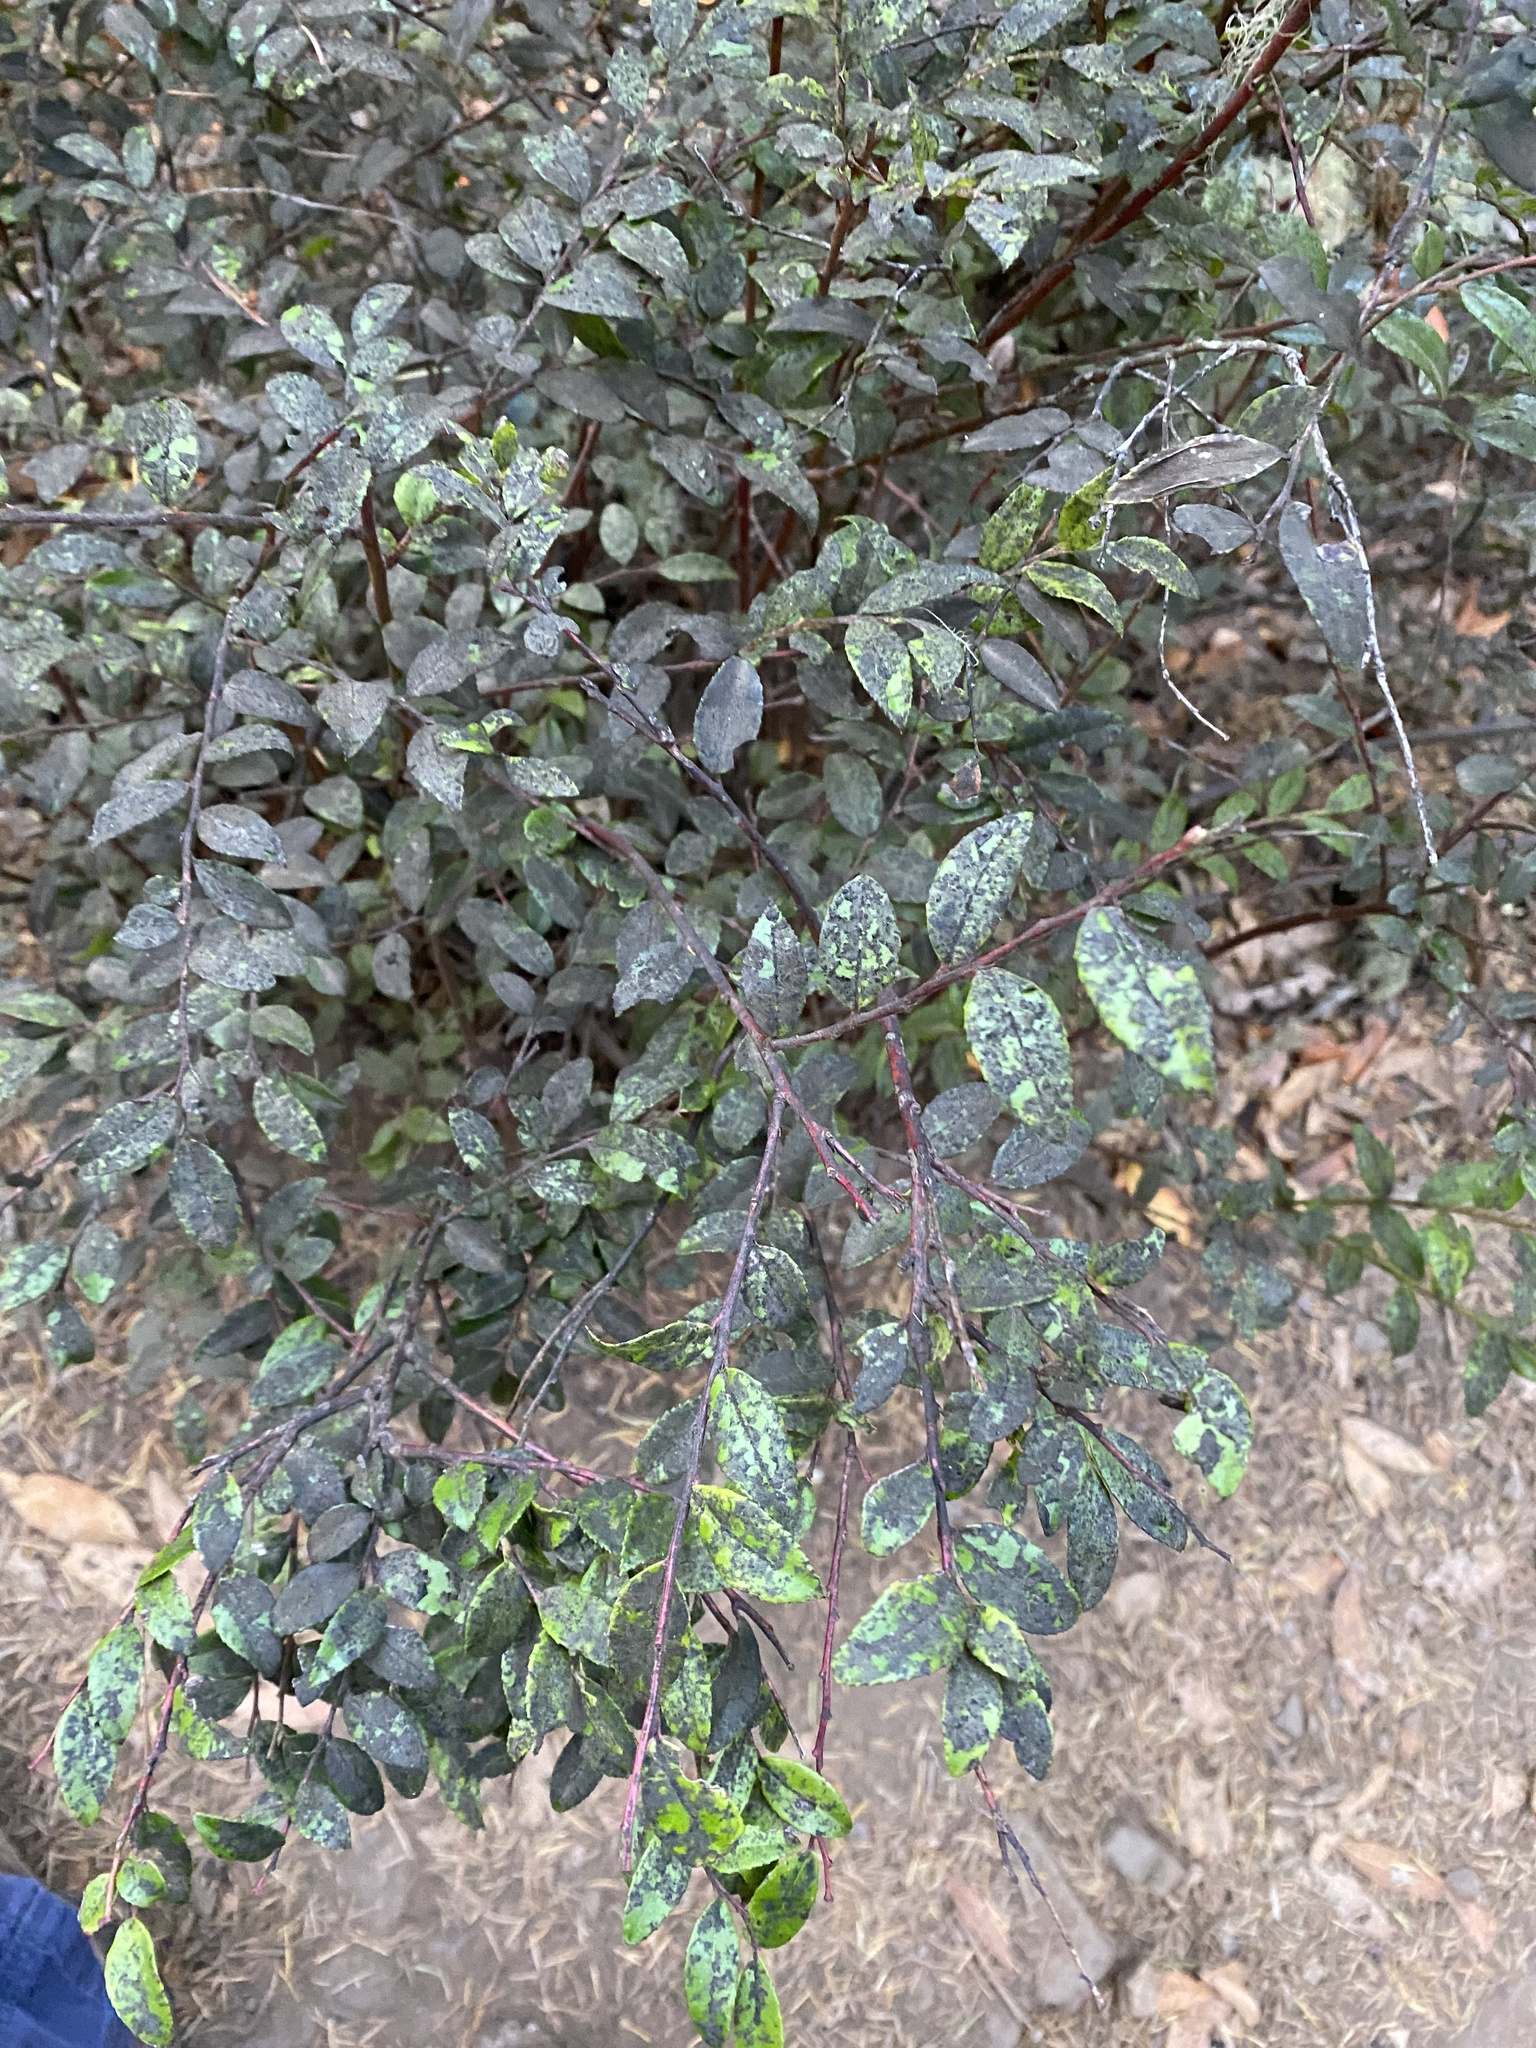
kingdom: Plantae
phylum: Tracheophyta
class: Magnoliopsida
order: Ericales
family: Ericaceae
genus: Vaccinium
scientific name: Vaccinium ovatum
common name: California-huckleberry
